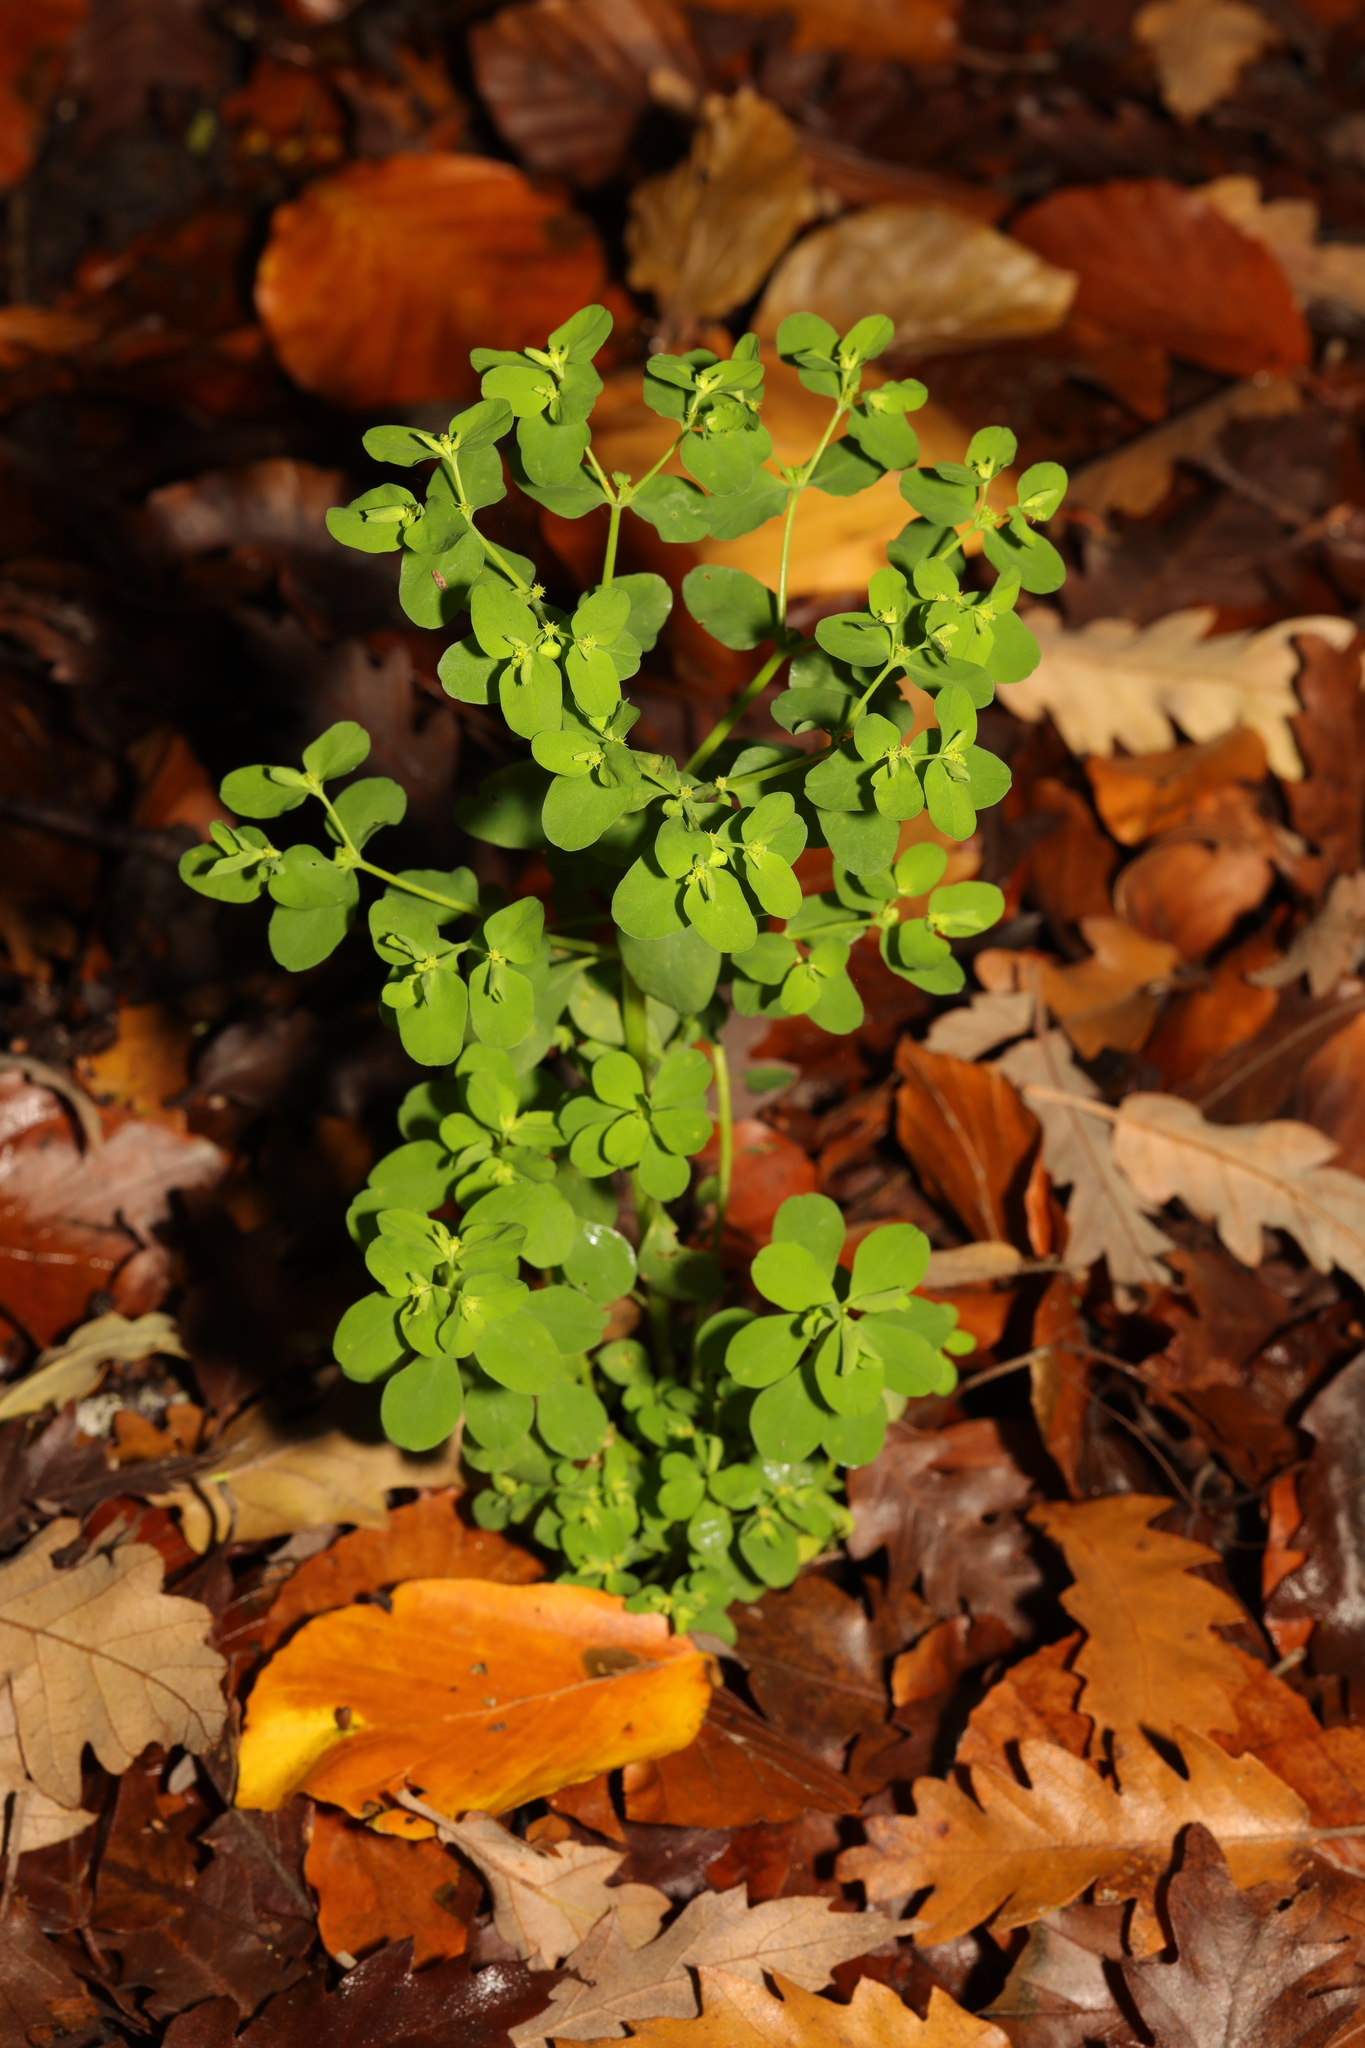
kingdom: Plantae
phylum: Tracheophyta
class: Magnoliopsida
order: Malpighiales
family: Euphorbiaceae
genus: Euphorbia
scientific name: Euphorbia peplus
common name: Petty spurge
